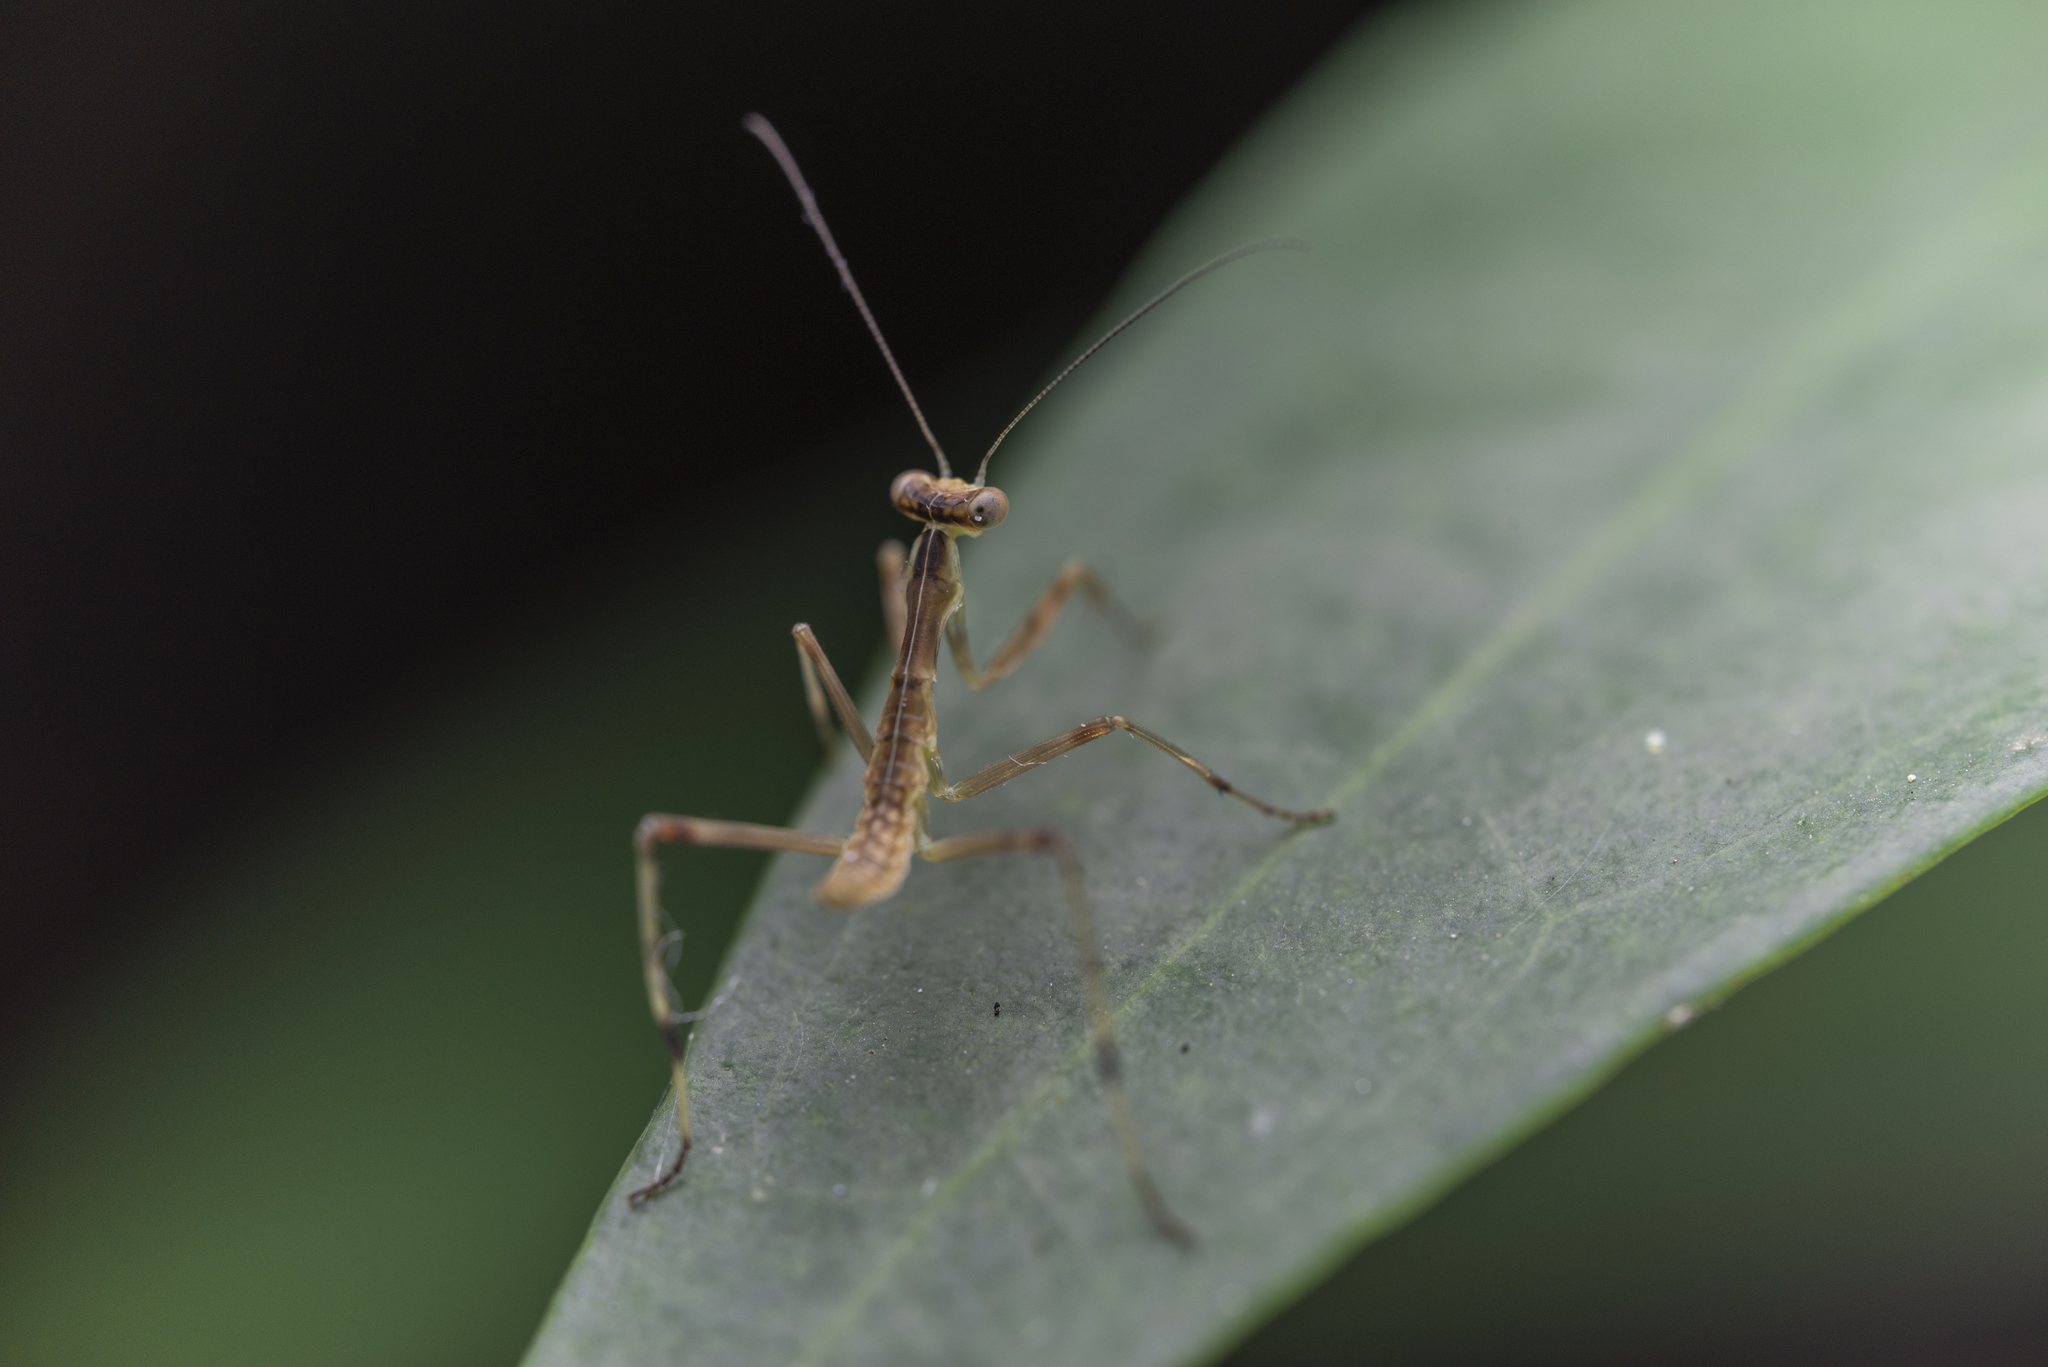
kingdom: Animalia
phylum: Arthropoda
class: Insecta
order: Mantodea
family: Mantidae
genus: Hierodula
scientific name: Hierodula patellifera
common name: Asian mantis
